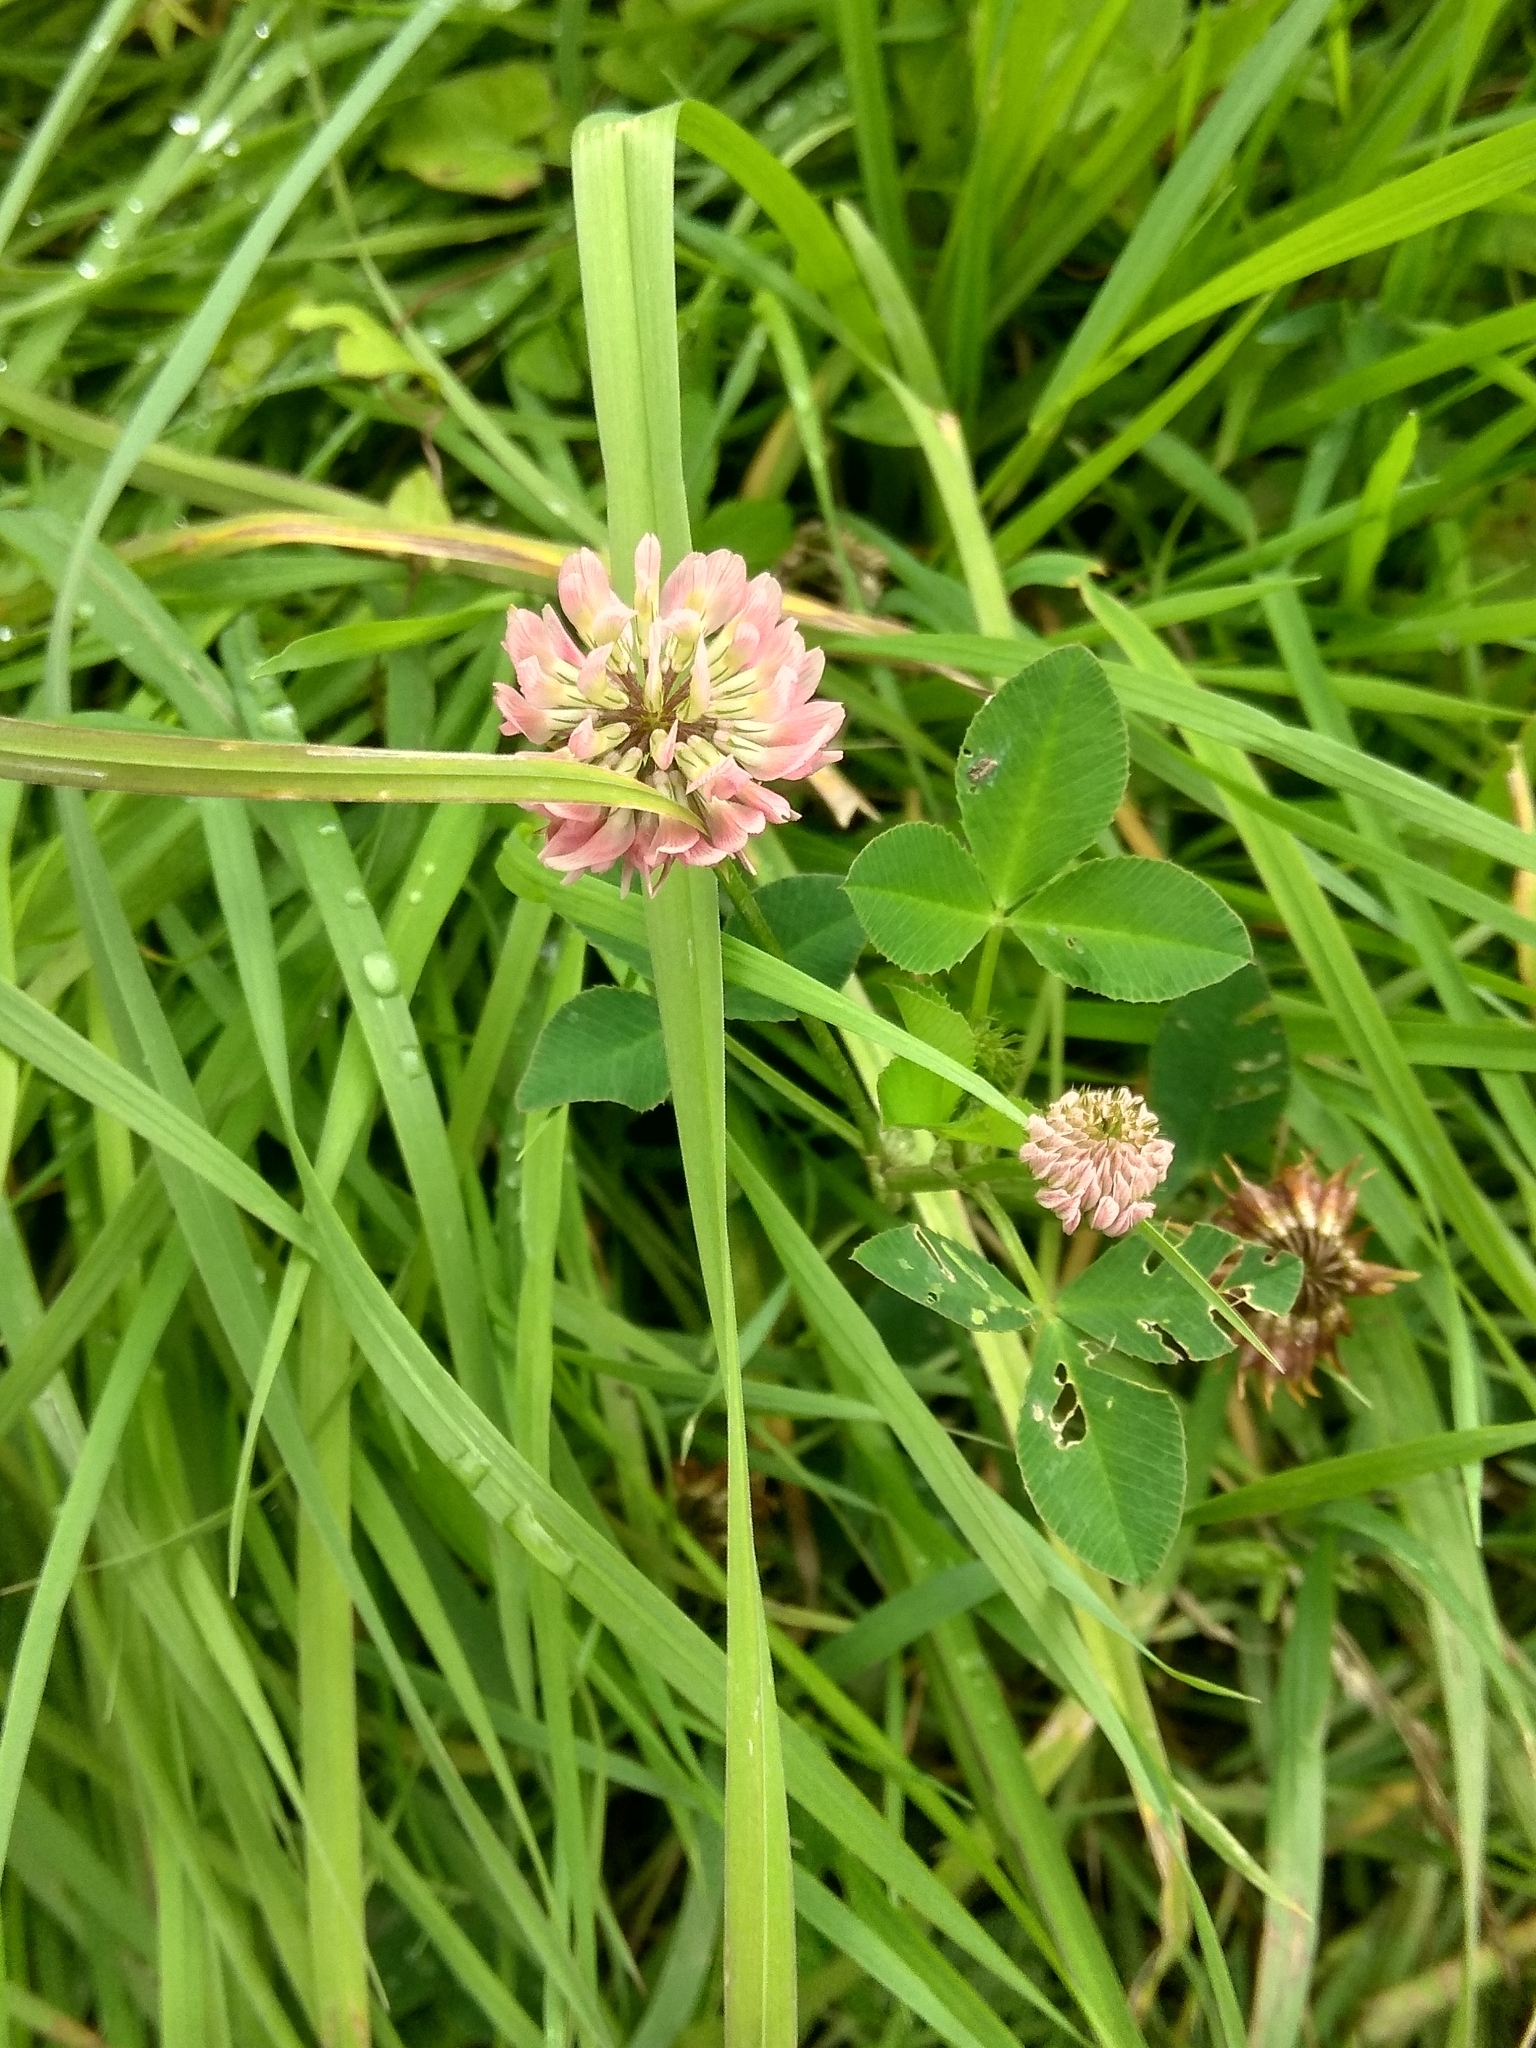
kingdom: Plantae
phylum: Tracheophyta
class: Magnoliopsida
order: Fabales
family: Fabaceae
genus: Trifolium
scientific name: Trifolium hybridum
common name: Alsike clover
